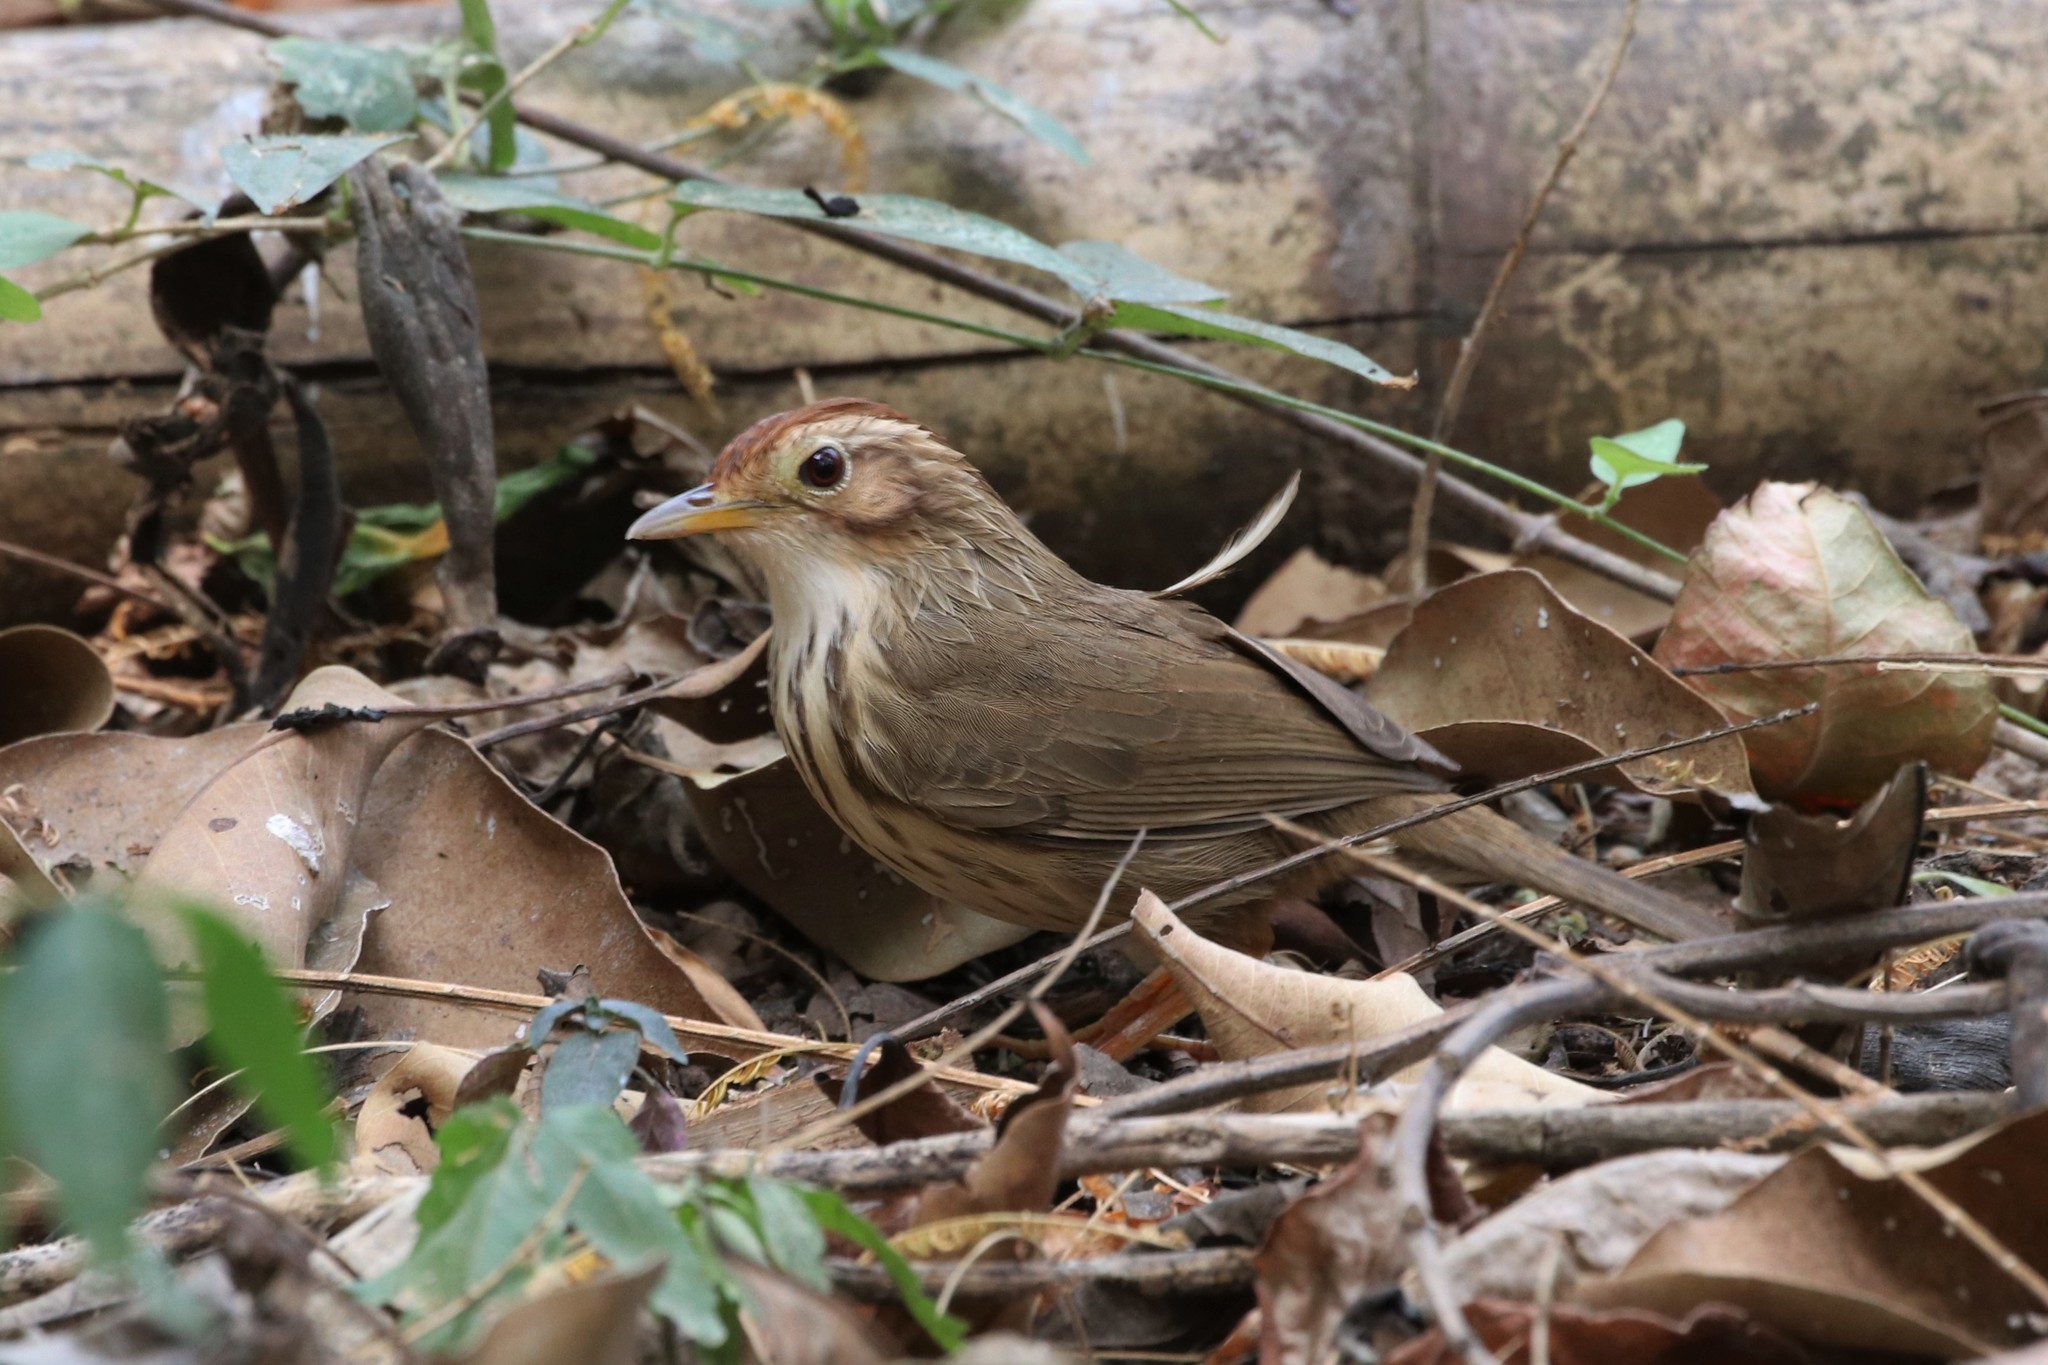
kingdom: Animalia
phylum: Chordata
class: Aves
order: Passeriformes
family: Pellorneidae
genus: Pellorneum
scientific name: Pellorneum ruficeps
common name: Puff-throated babbler
